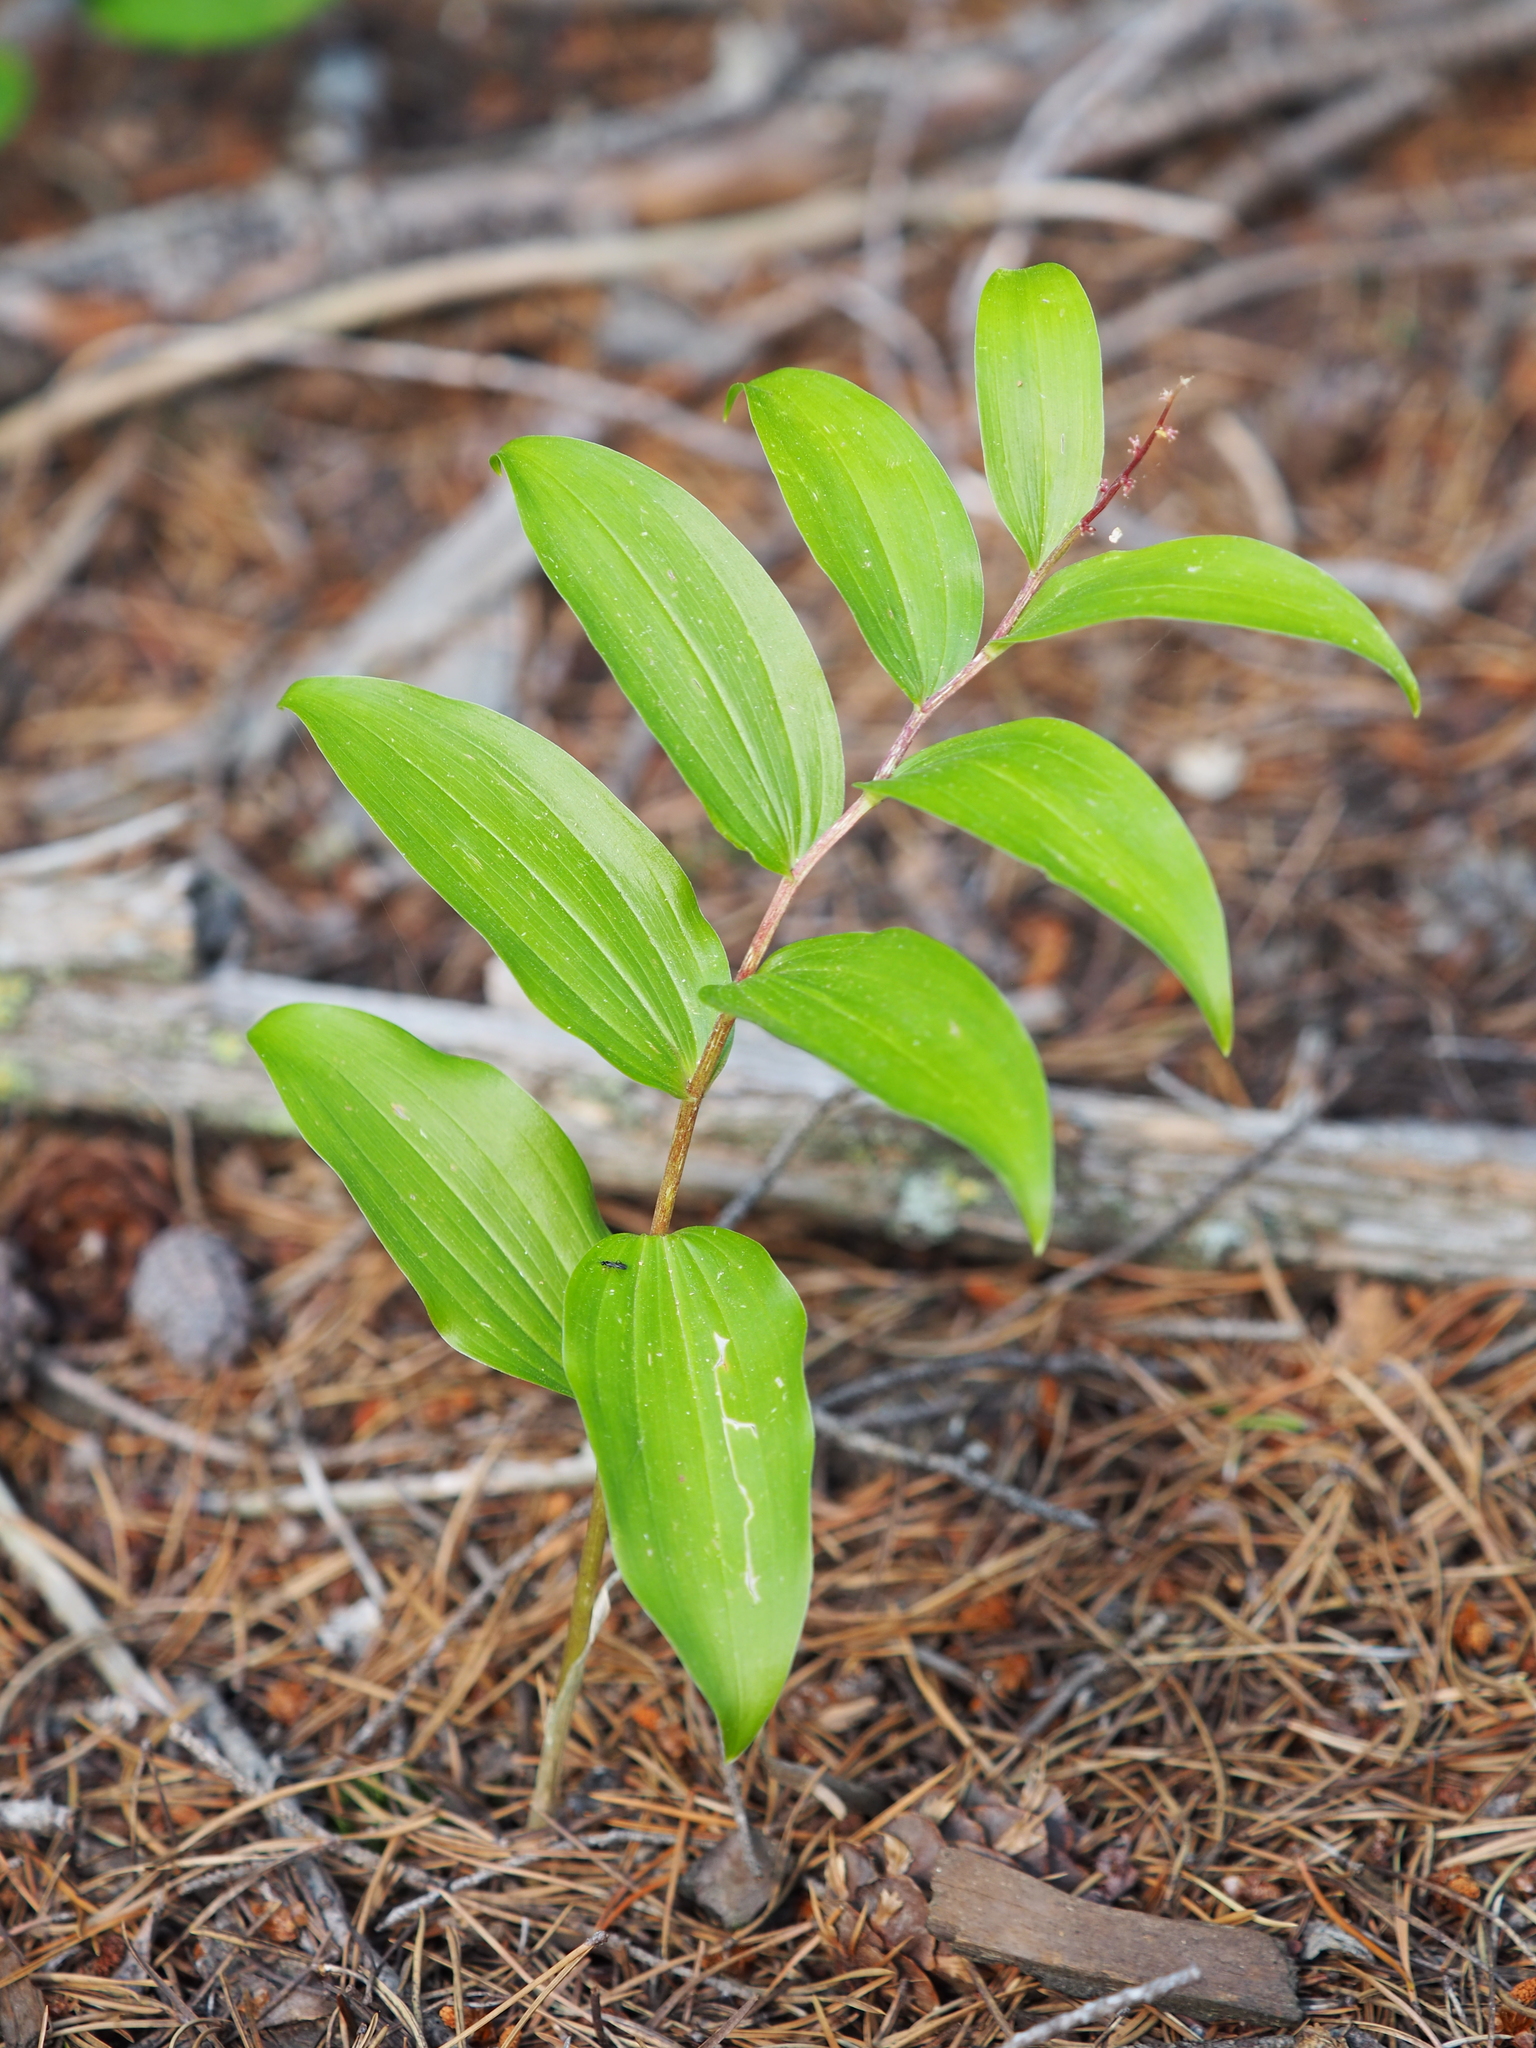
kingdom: Plantae
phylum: Tracheophyta
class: Liliopsida
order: Asparagales
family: Asparagaceae
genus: Maianthemum
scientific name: Maianthemum racemosum
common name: False spikenard
